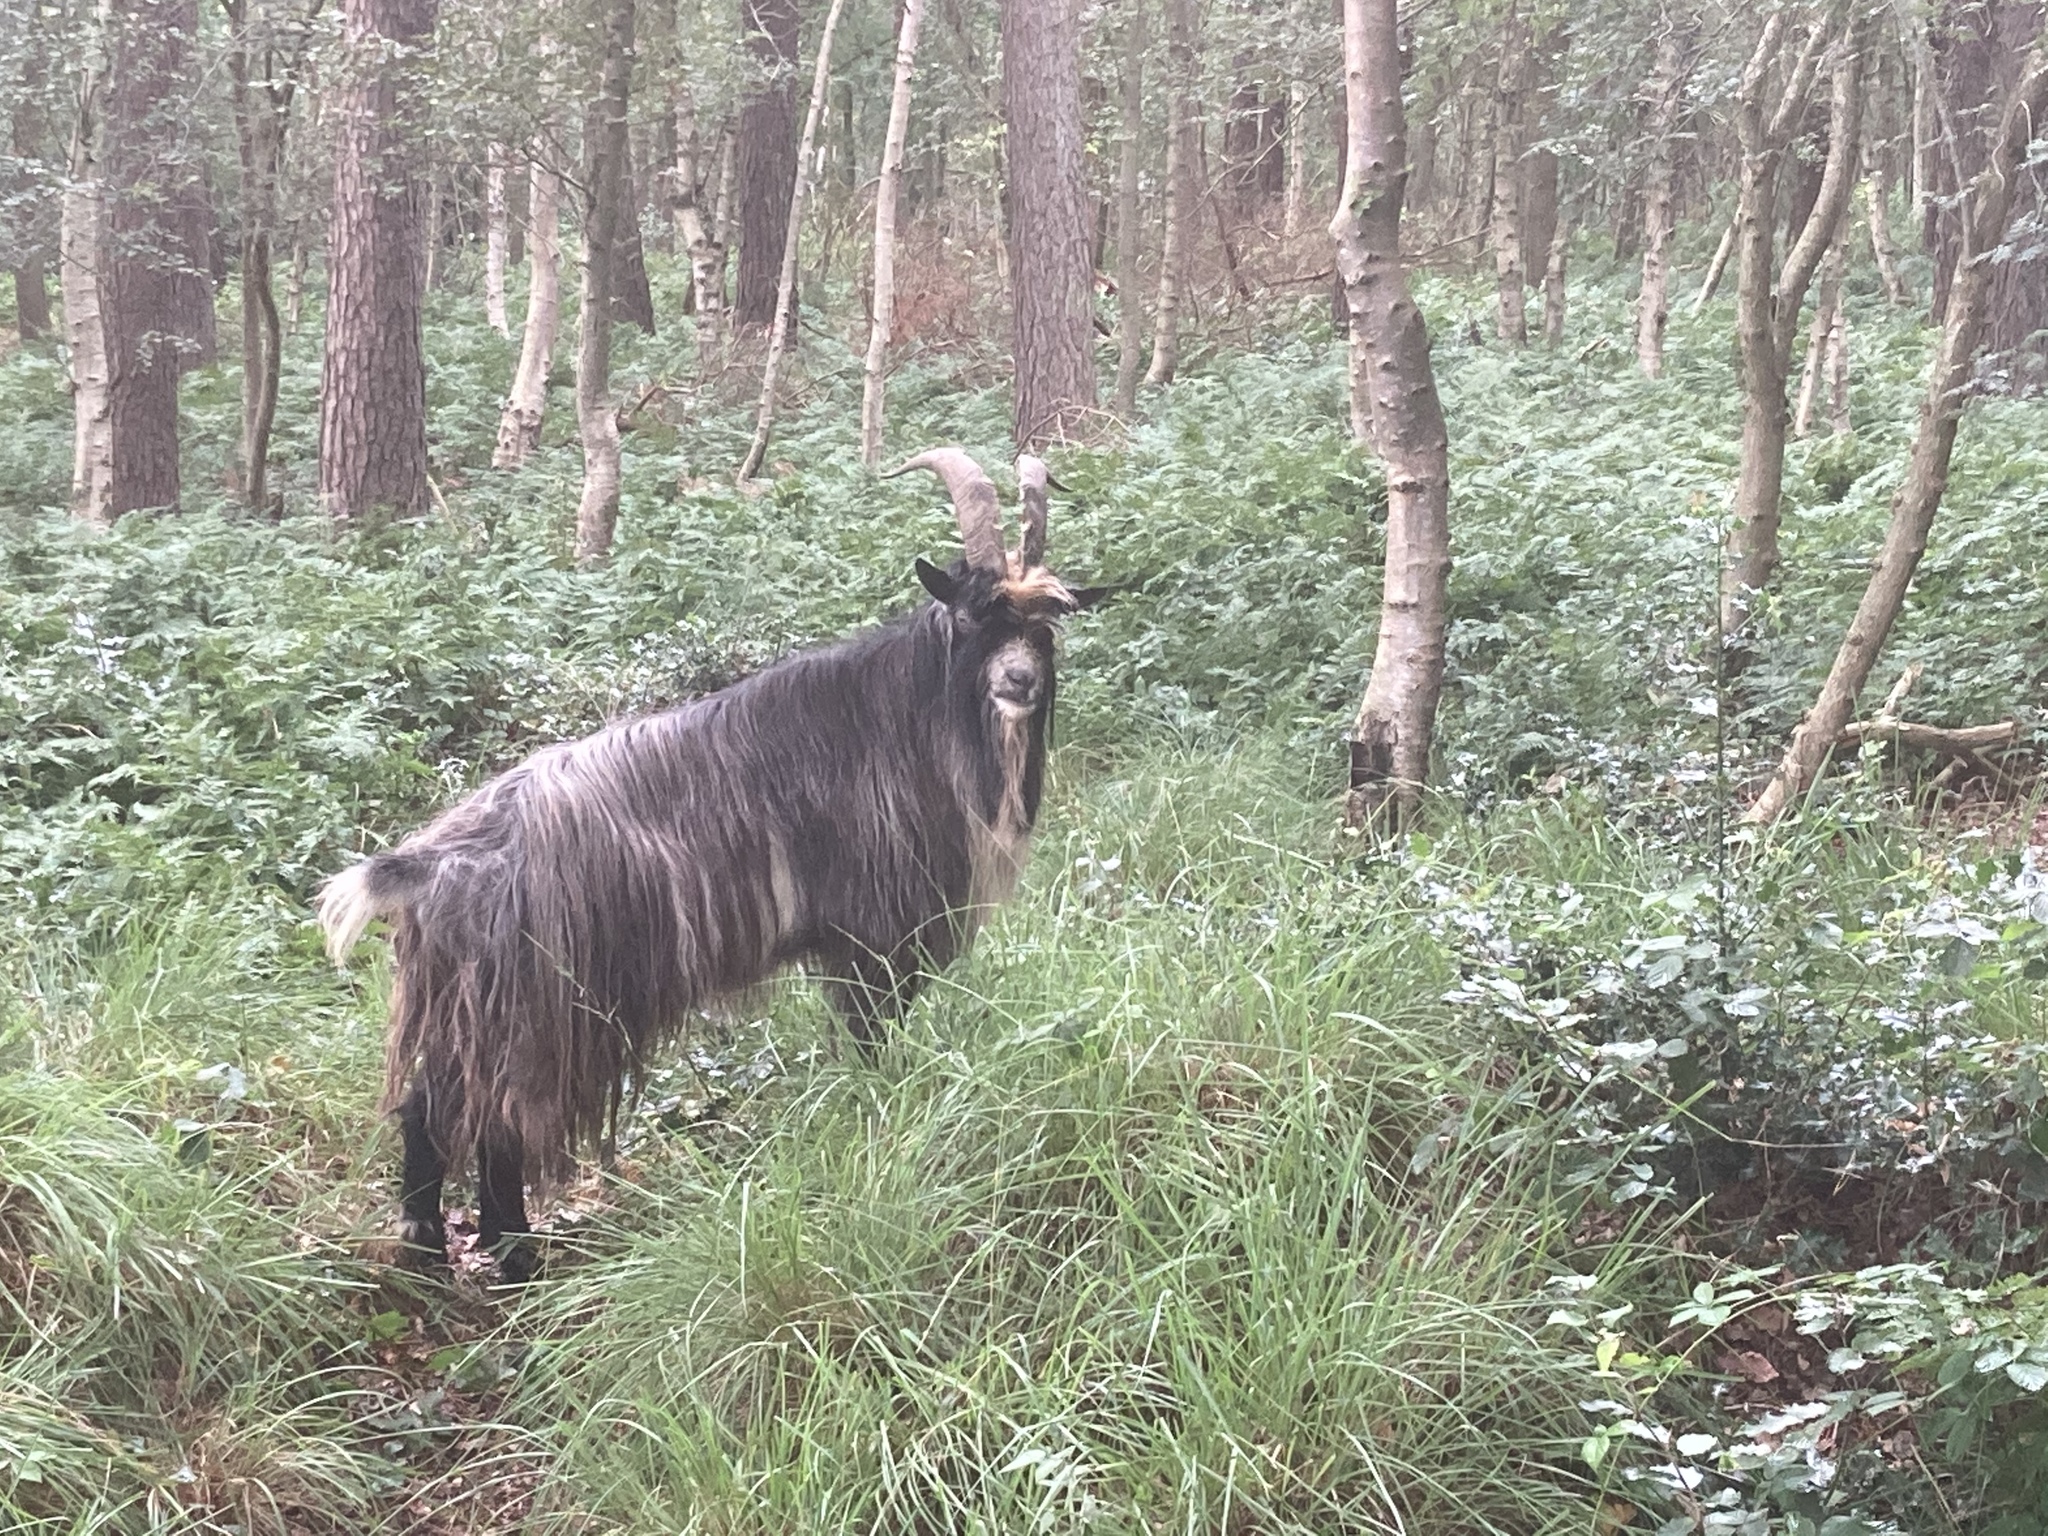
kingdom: Animalia
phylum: Chordata
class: Mammalia
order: Artiodactyla
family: Bovidae
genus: Capra
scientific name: Capra hircus
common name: Domestic goat
